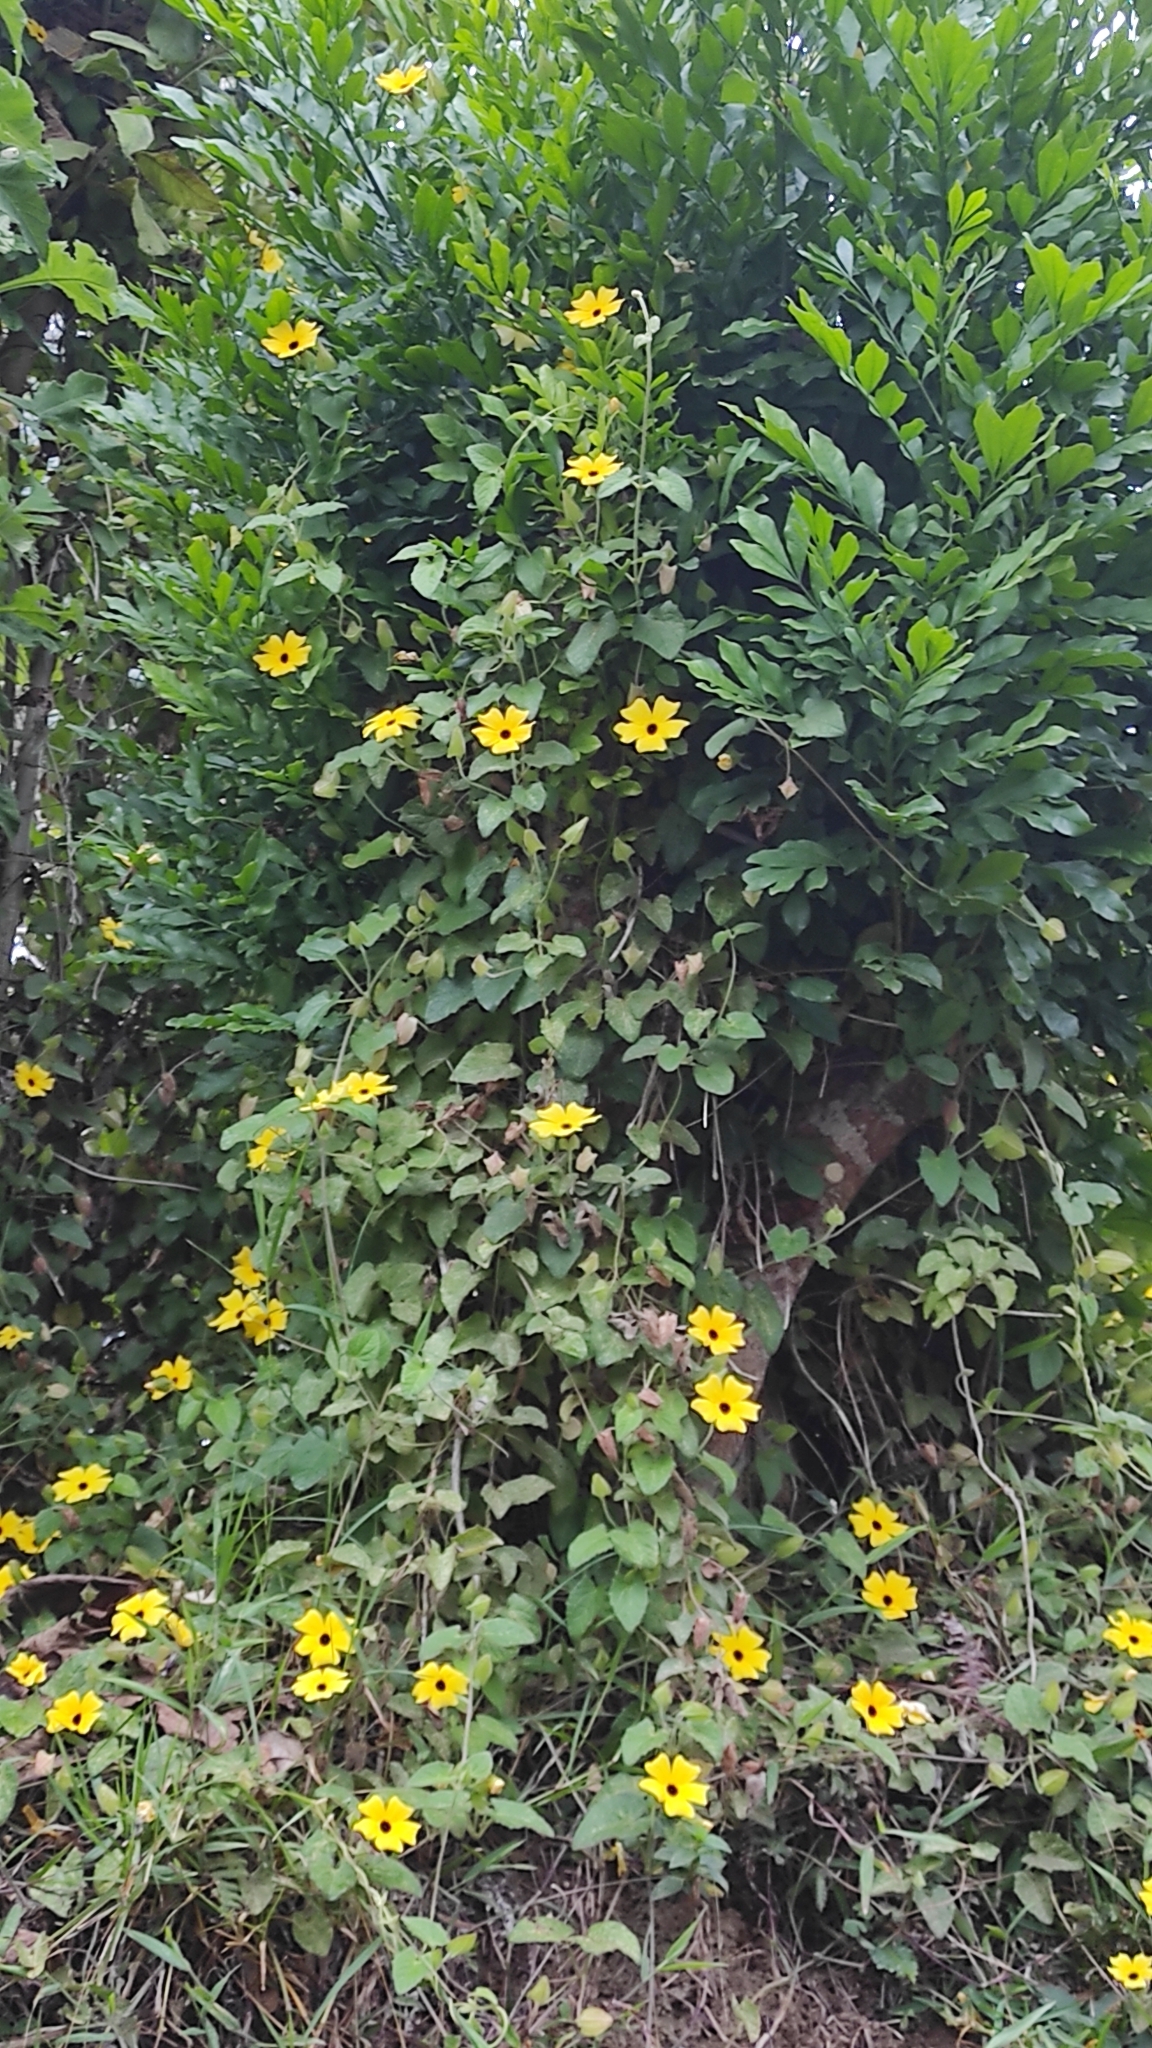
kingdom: Plantae
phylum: Tracheophyta
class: Magnoliopsida
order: Lamiales
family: Acanthaceae
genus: Thunbergia
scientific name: Thunbergia alata
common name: Blackeyed susan vine
